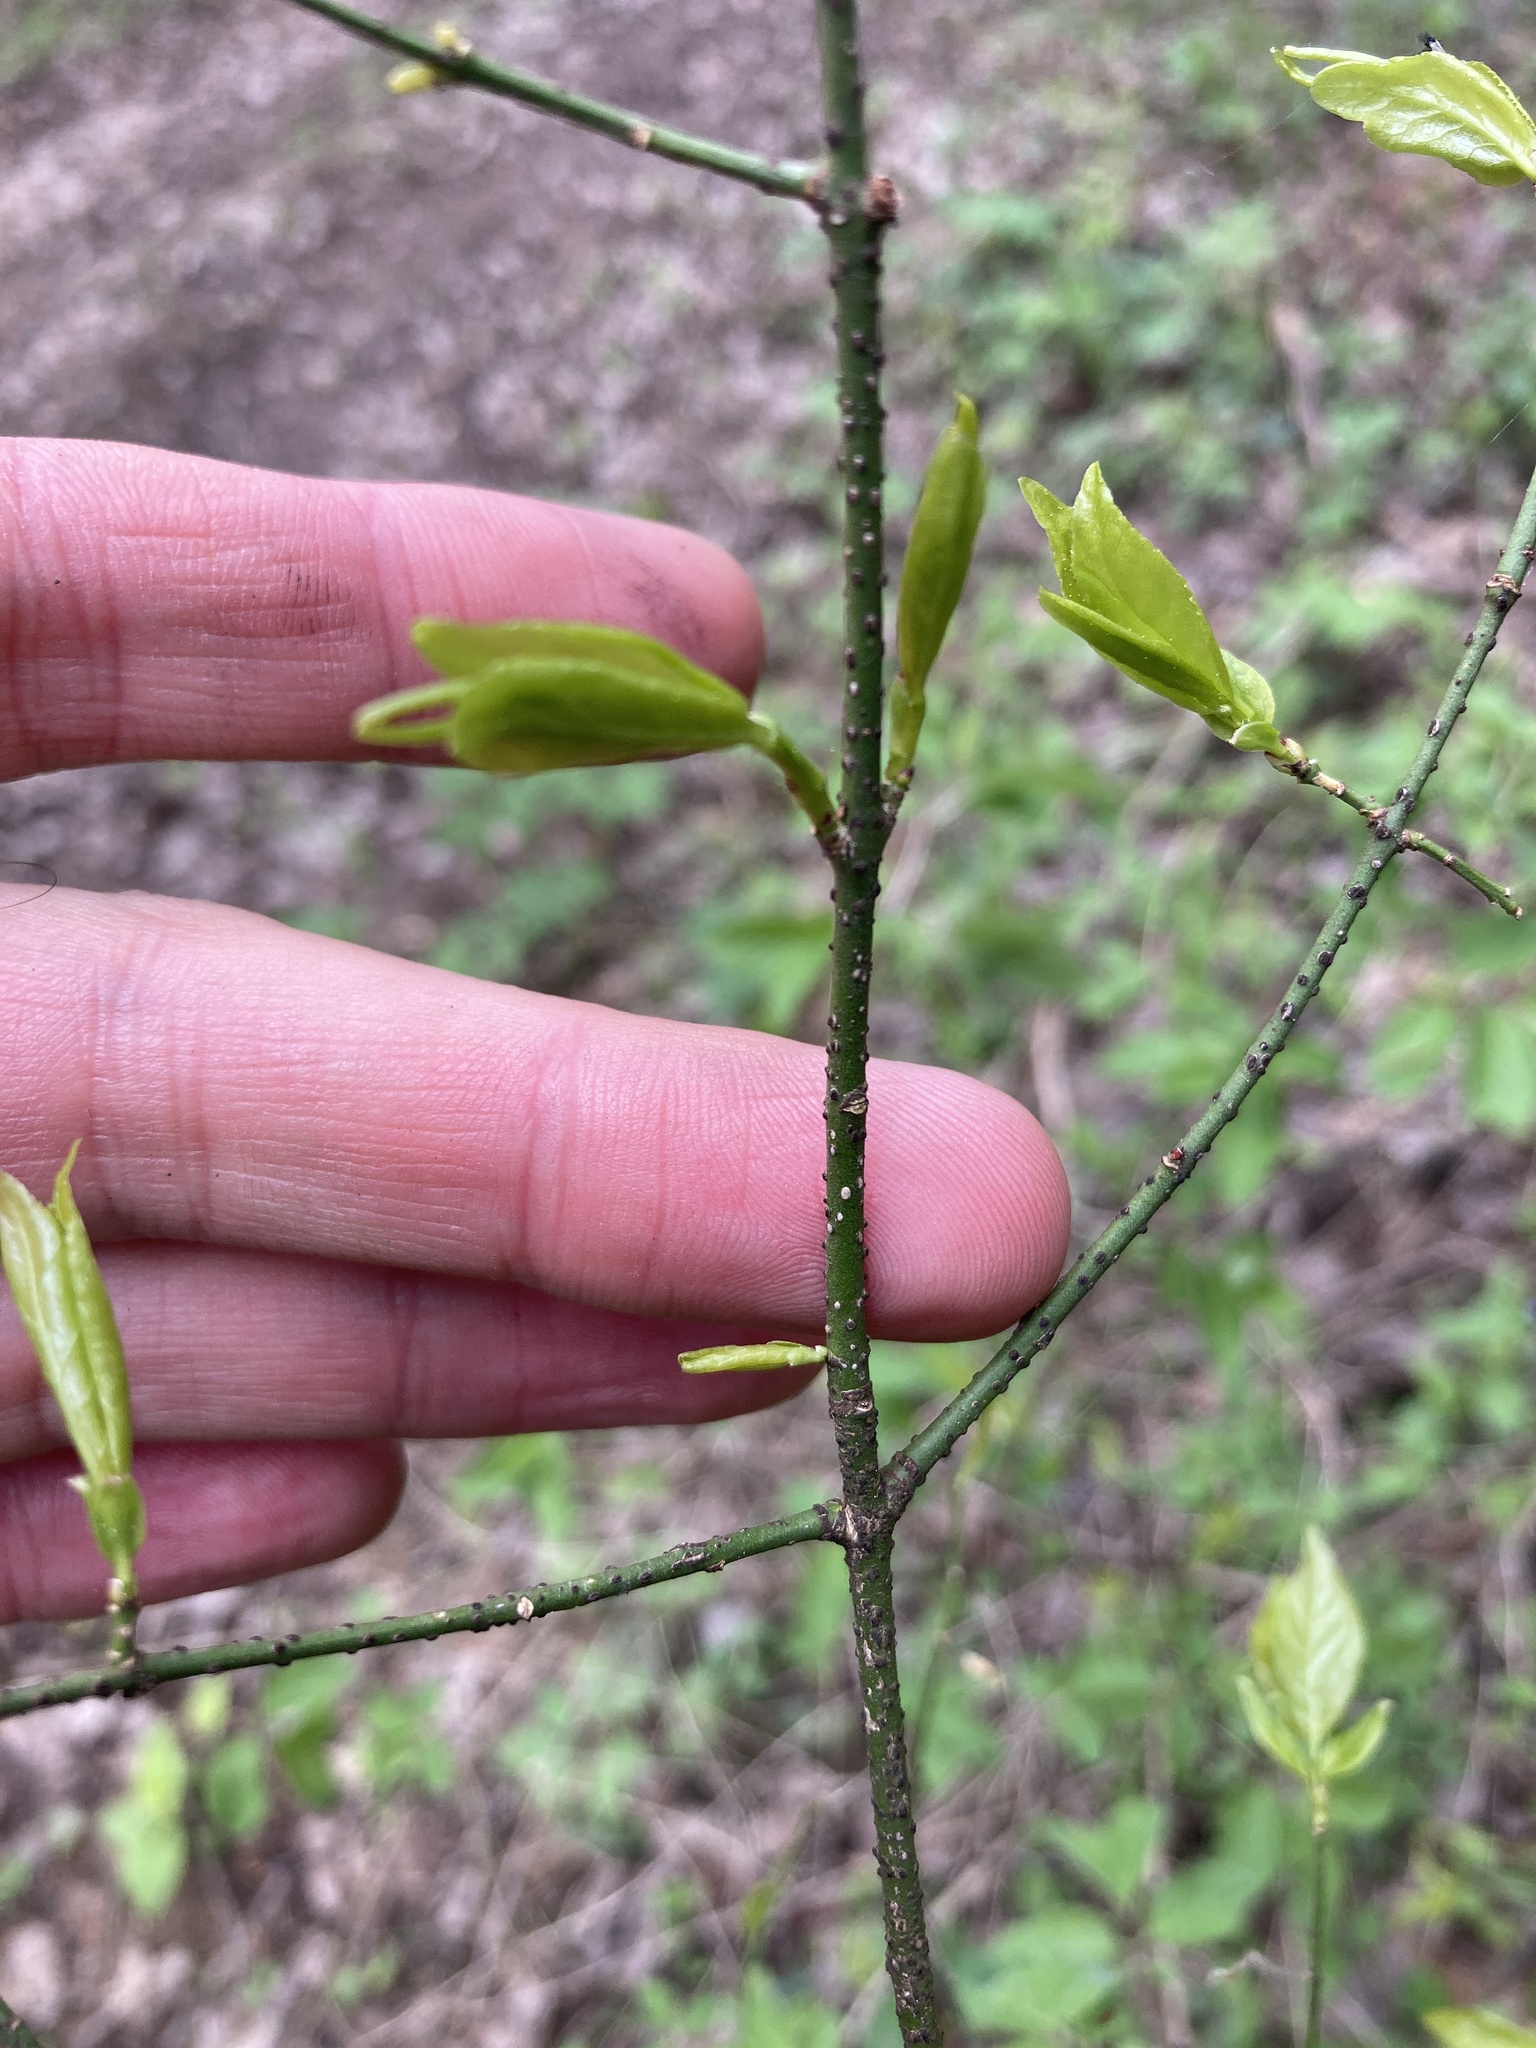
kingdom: Plantae
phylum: Tracheophyta
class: Magnoliopsida
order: Celastrales
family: Celastraceae
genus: Euonymus
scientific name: Euonymus verrucosus
